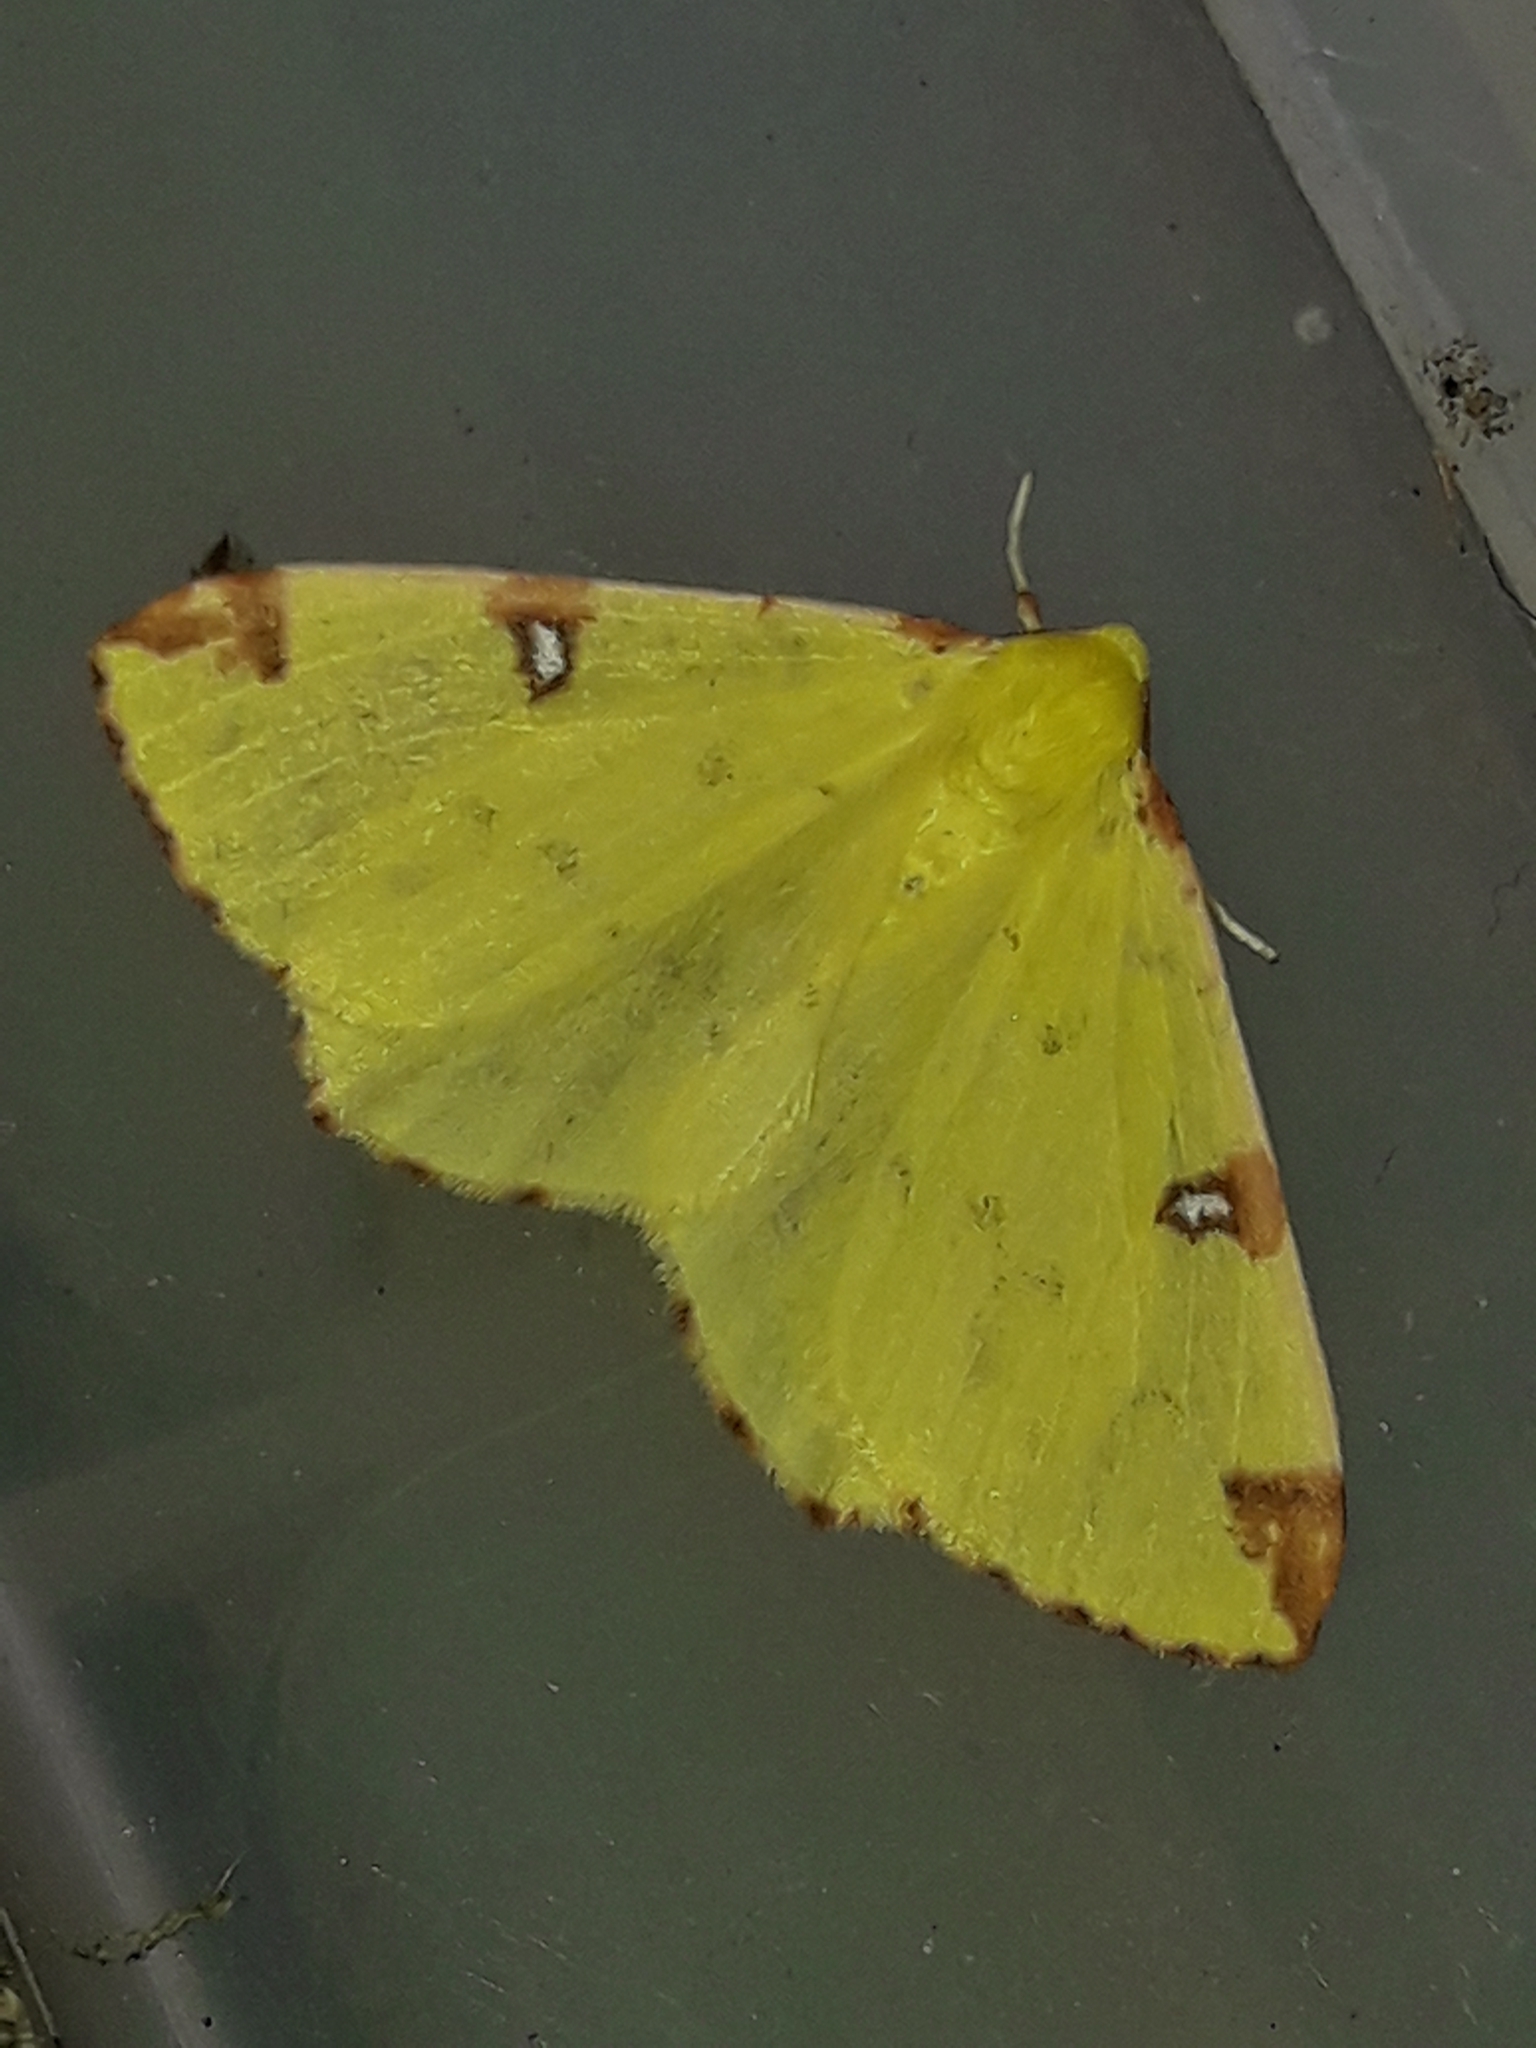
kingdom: Animalia
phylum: Arthropoda
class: Insecta
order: Lepidoptera
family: Geometridae
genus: Opisthograptis
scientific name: Opisthograptis luteolata
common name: Brimstone moth
